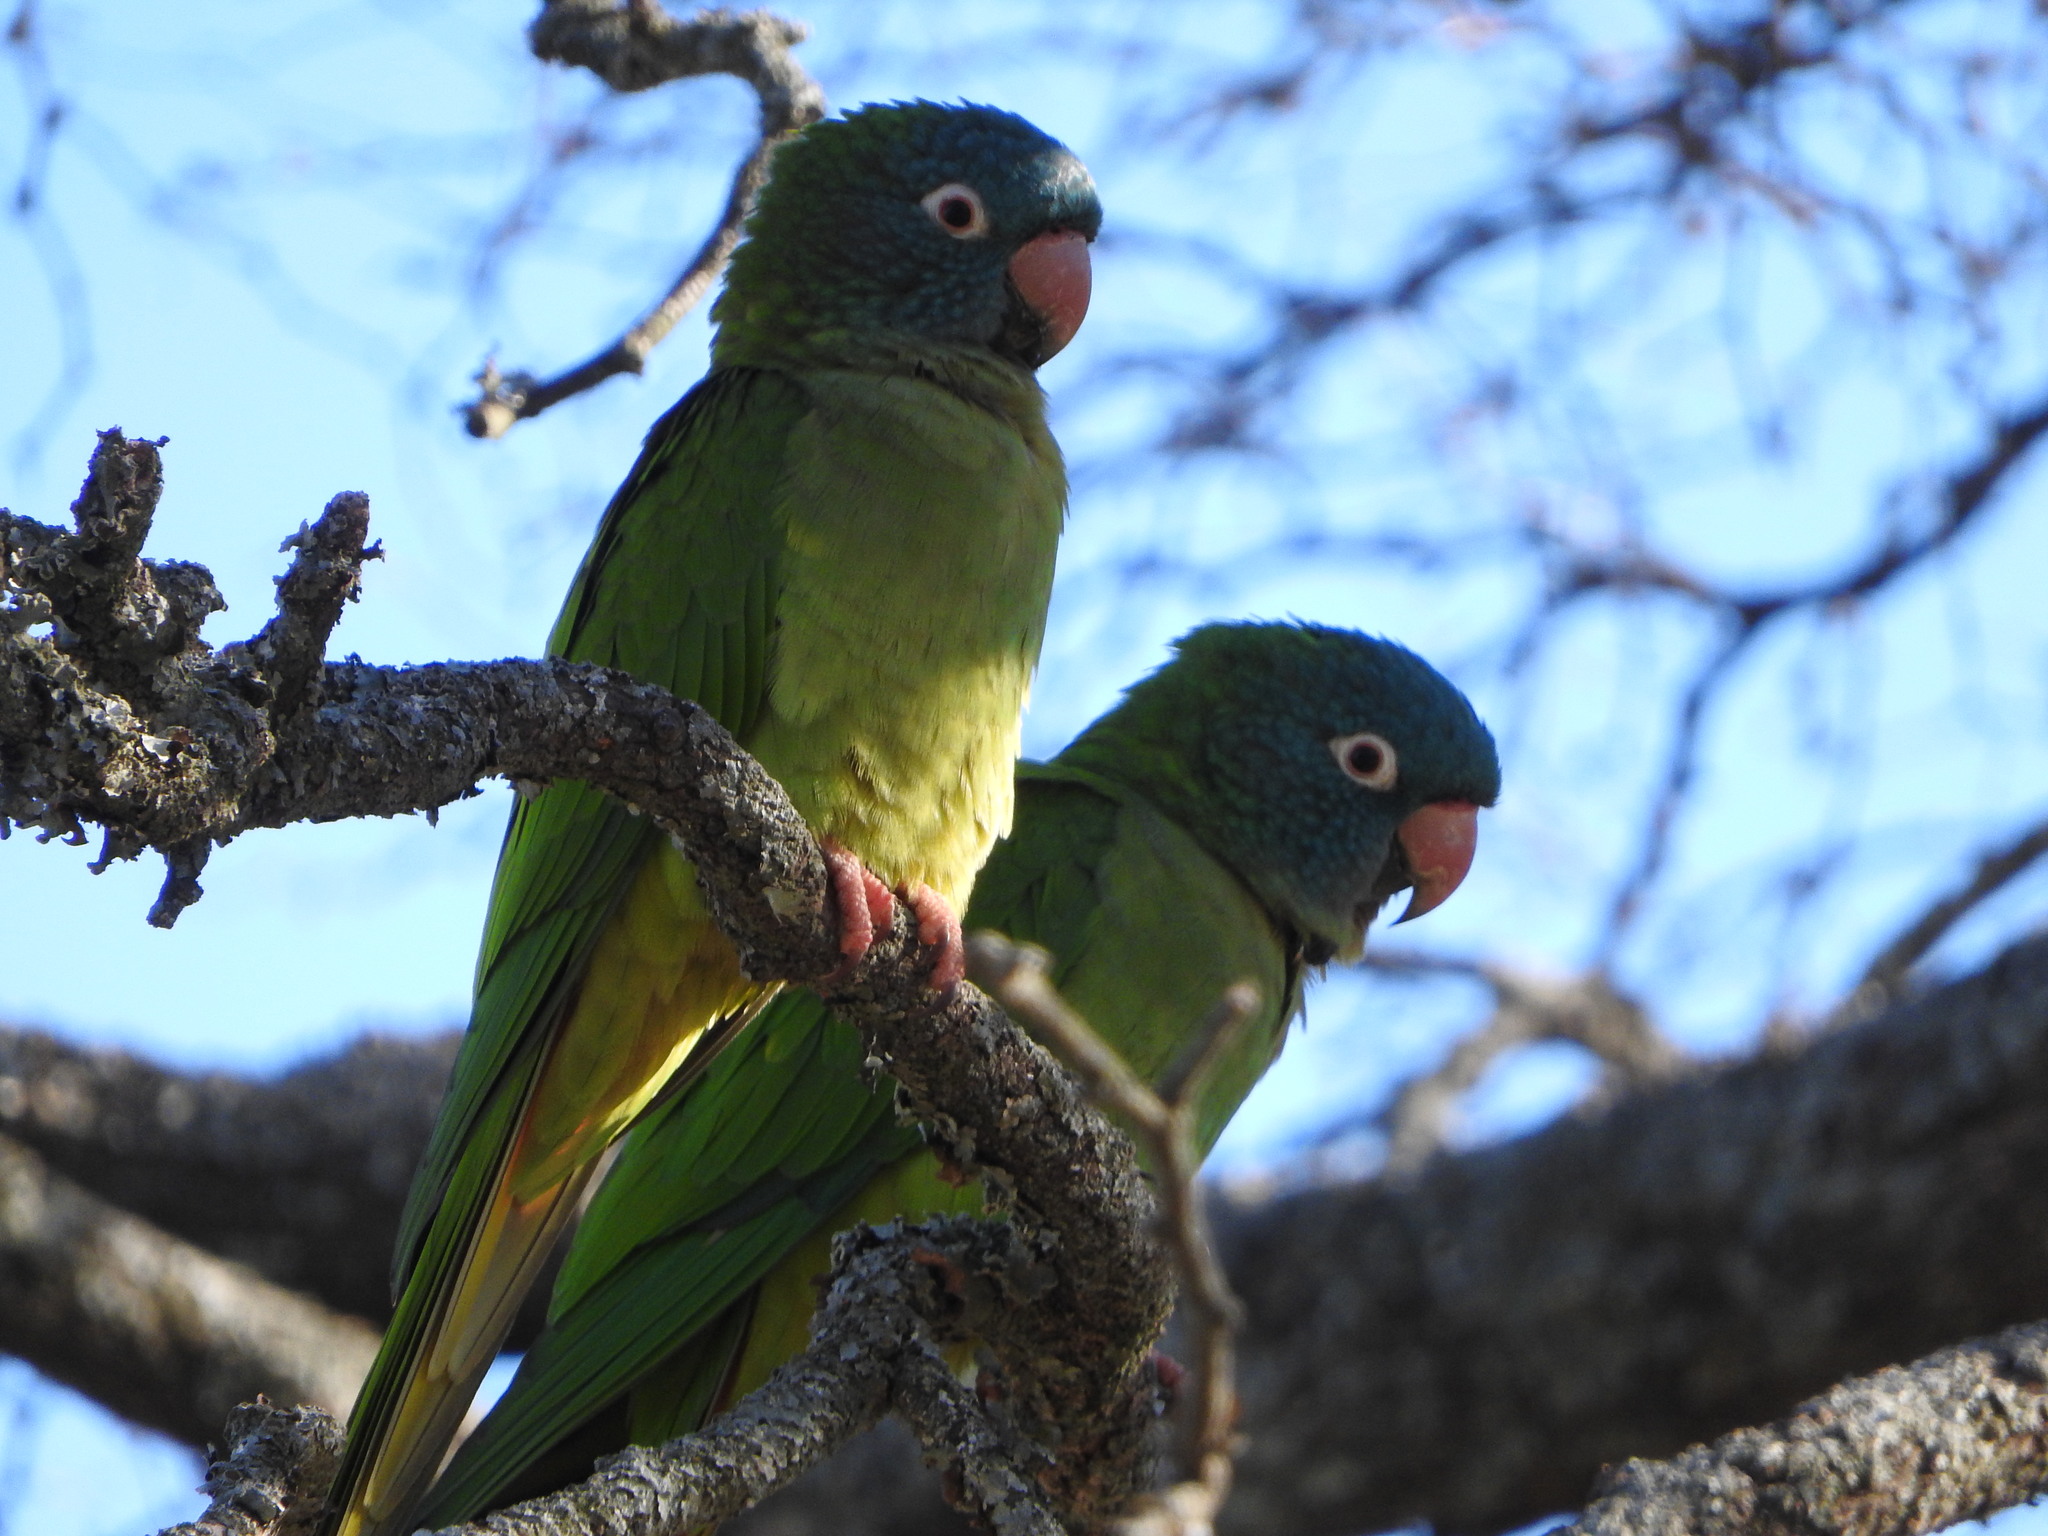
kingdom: Animalia
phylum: Chordata
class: Aves
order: Psittaciformes
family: Psittacidae
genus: Aratinga
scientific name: Aratinga acuticaudata
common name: Blue-crowned parakeet
